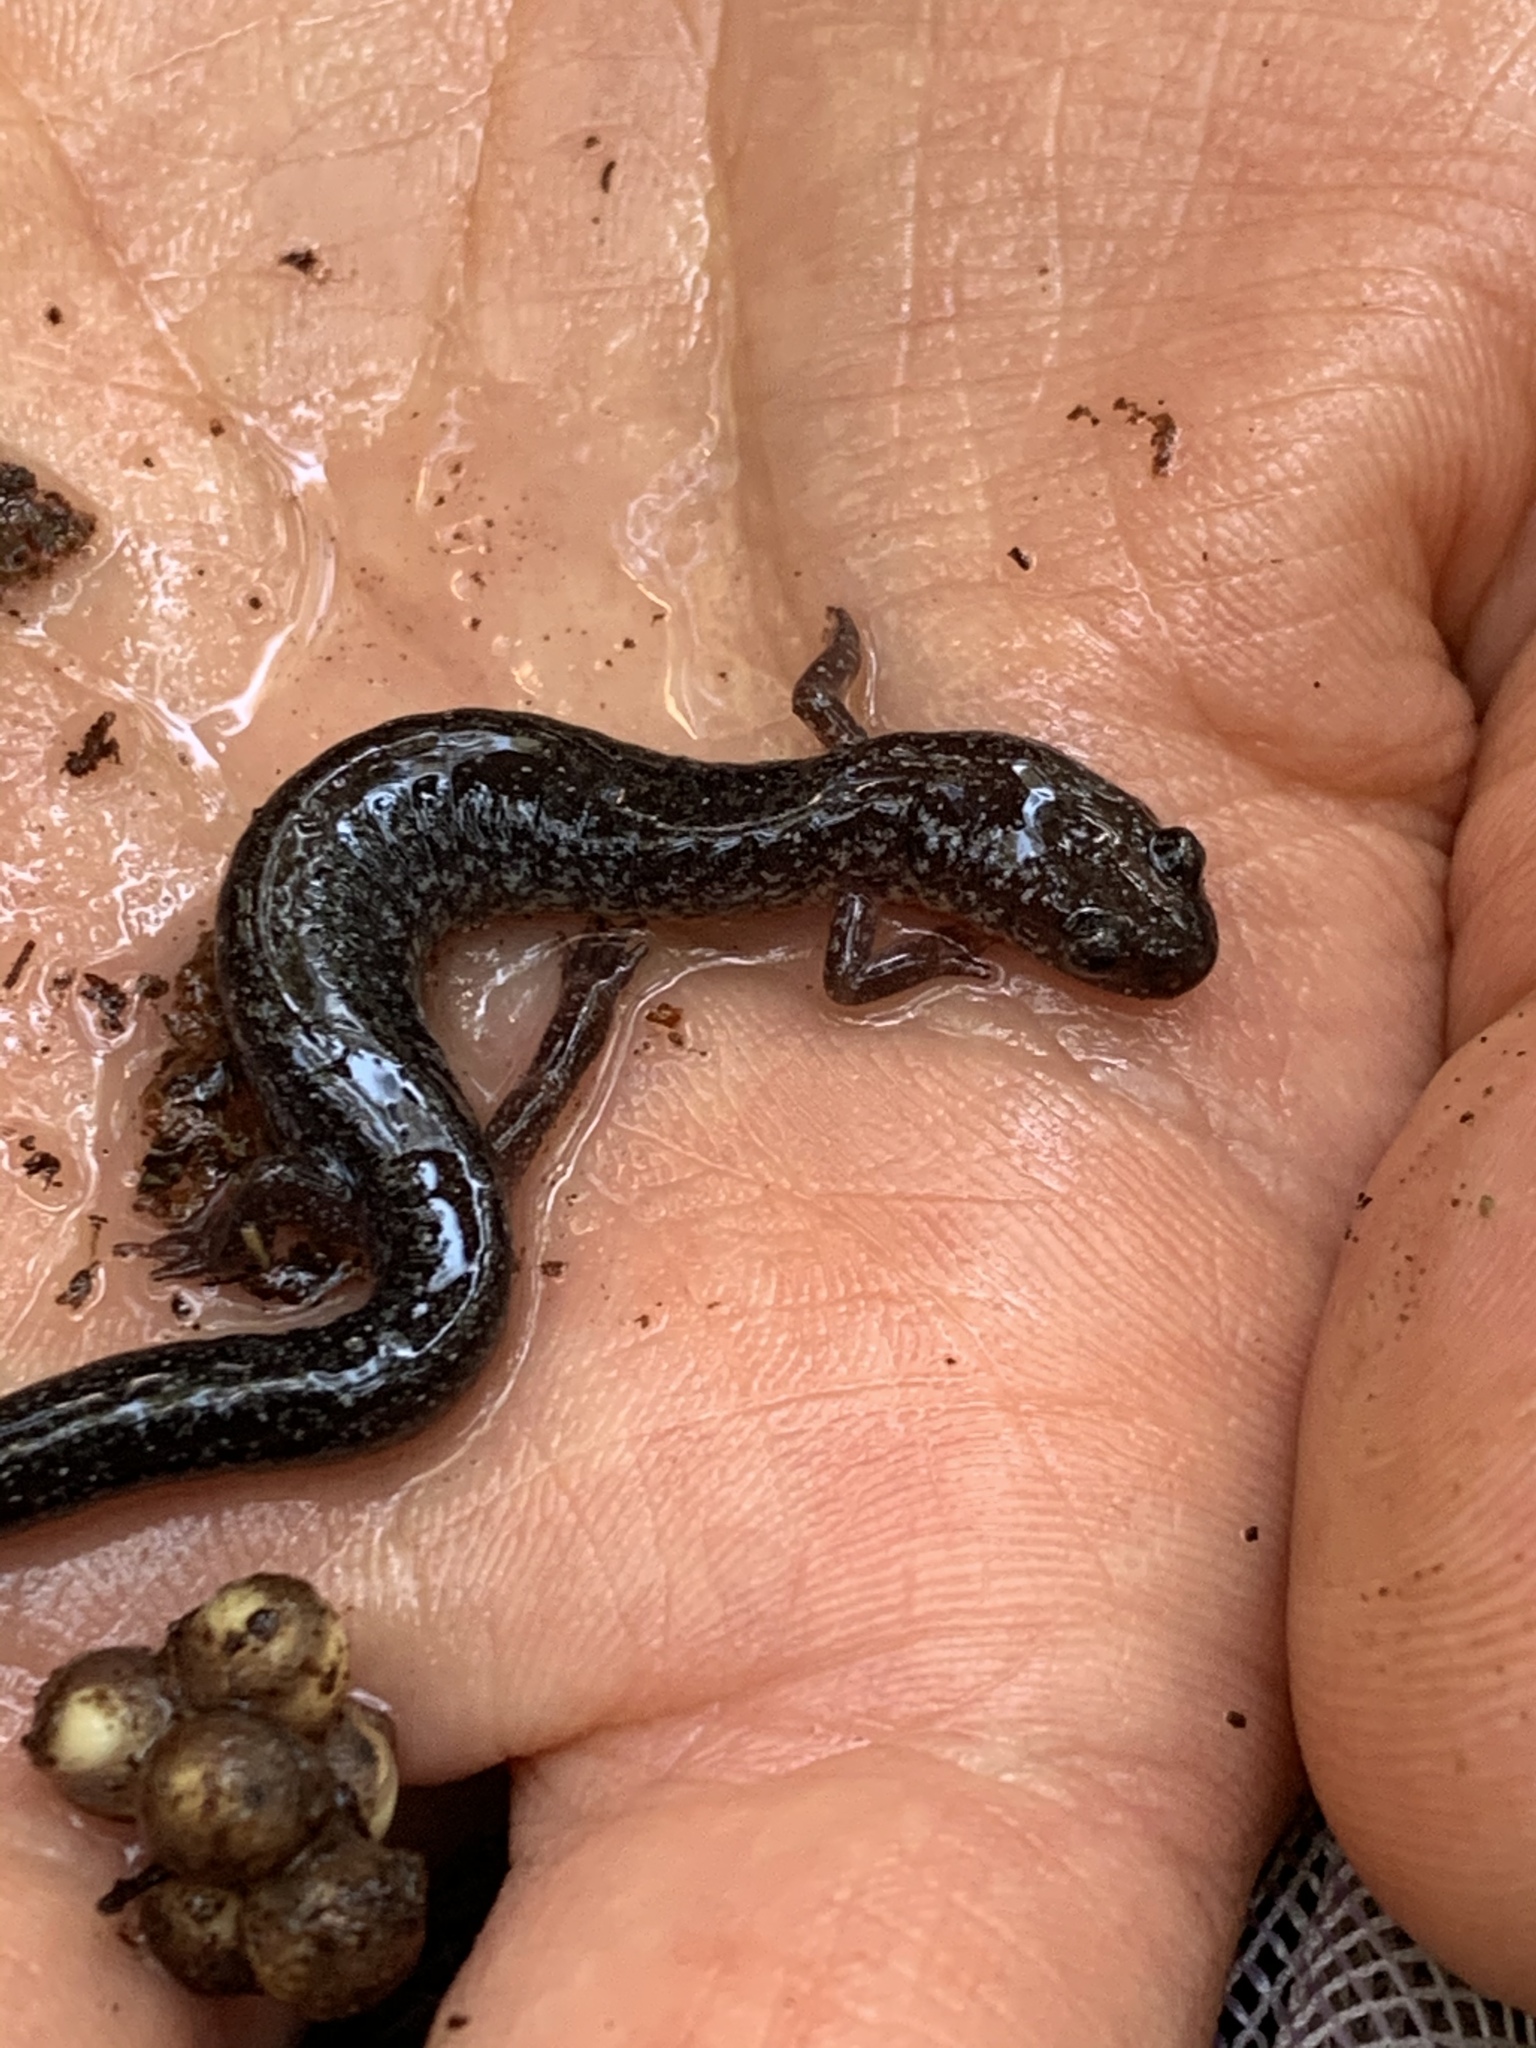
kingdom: Animalia
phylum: Chordata
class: Amphibia
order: Caudata
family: Plethodontidae
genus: Plethodon
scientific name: Plethodon cinereus
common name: Redback salamander
